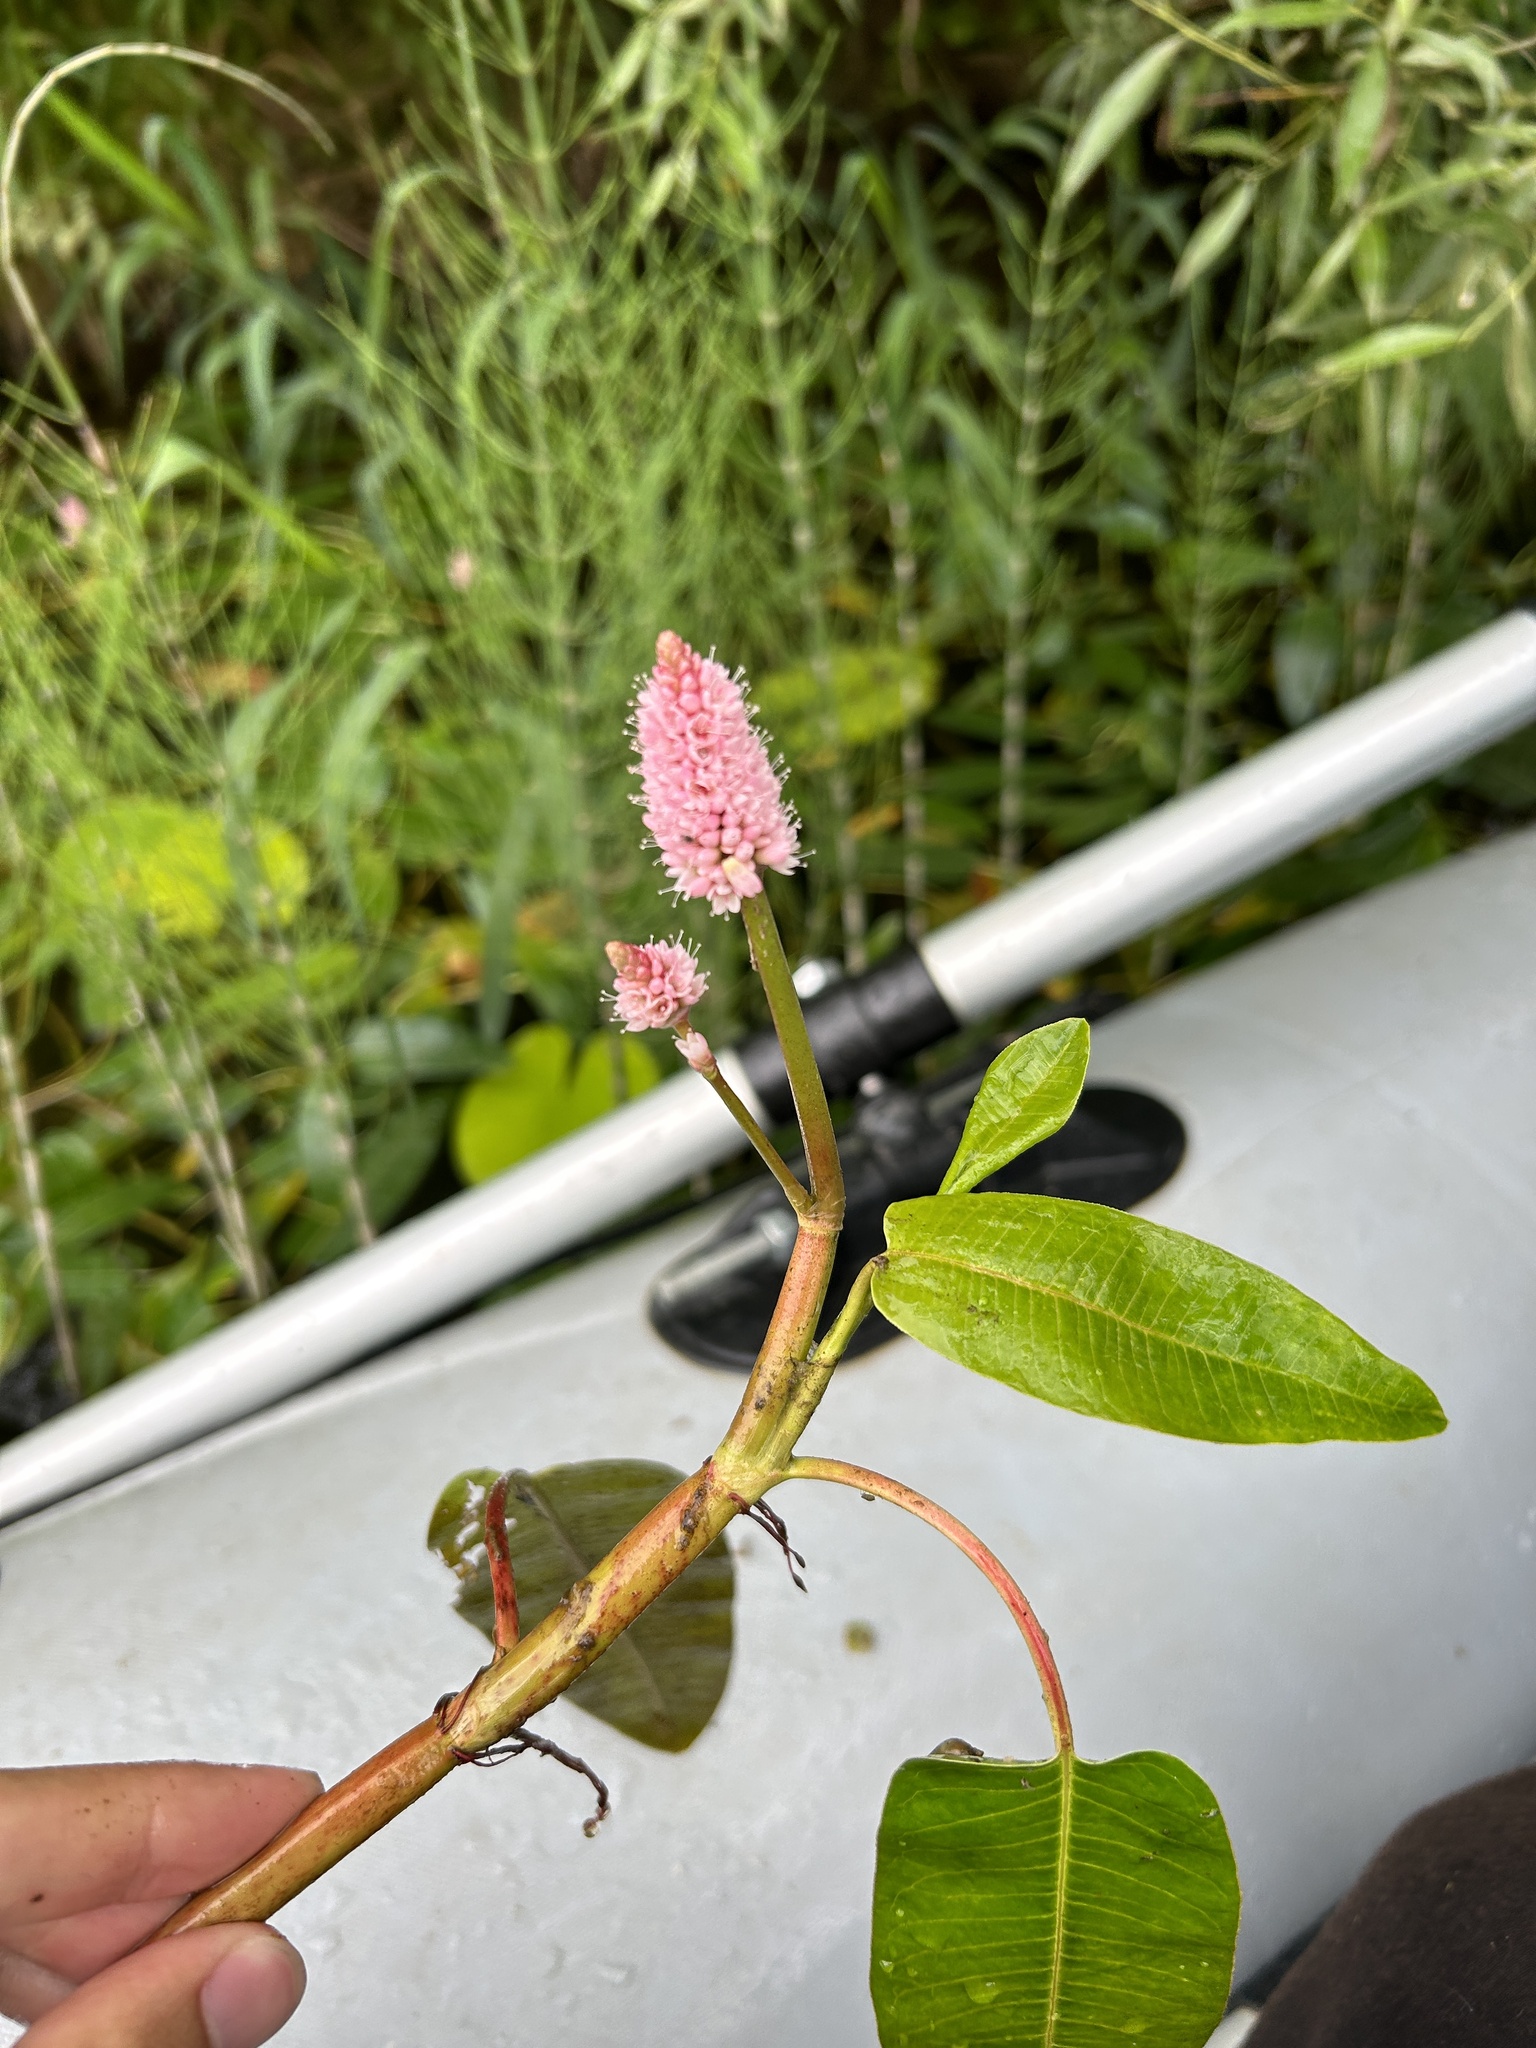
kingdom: Plantae
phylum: Tracheophyta
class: Magnoliopsida
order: Caryophyllales
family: Polygonaceae
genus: Persicaria
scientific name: Persicaria amphibia
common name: Amphibious bistort
